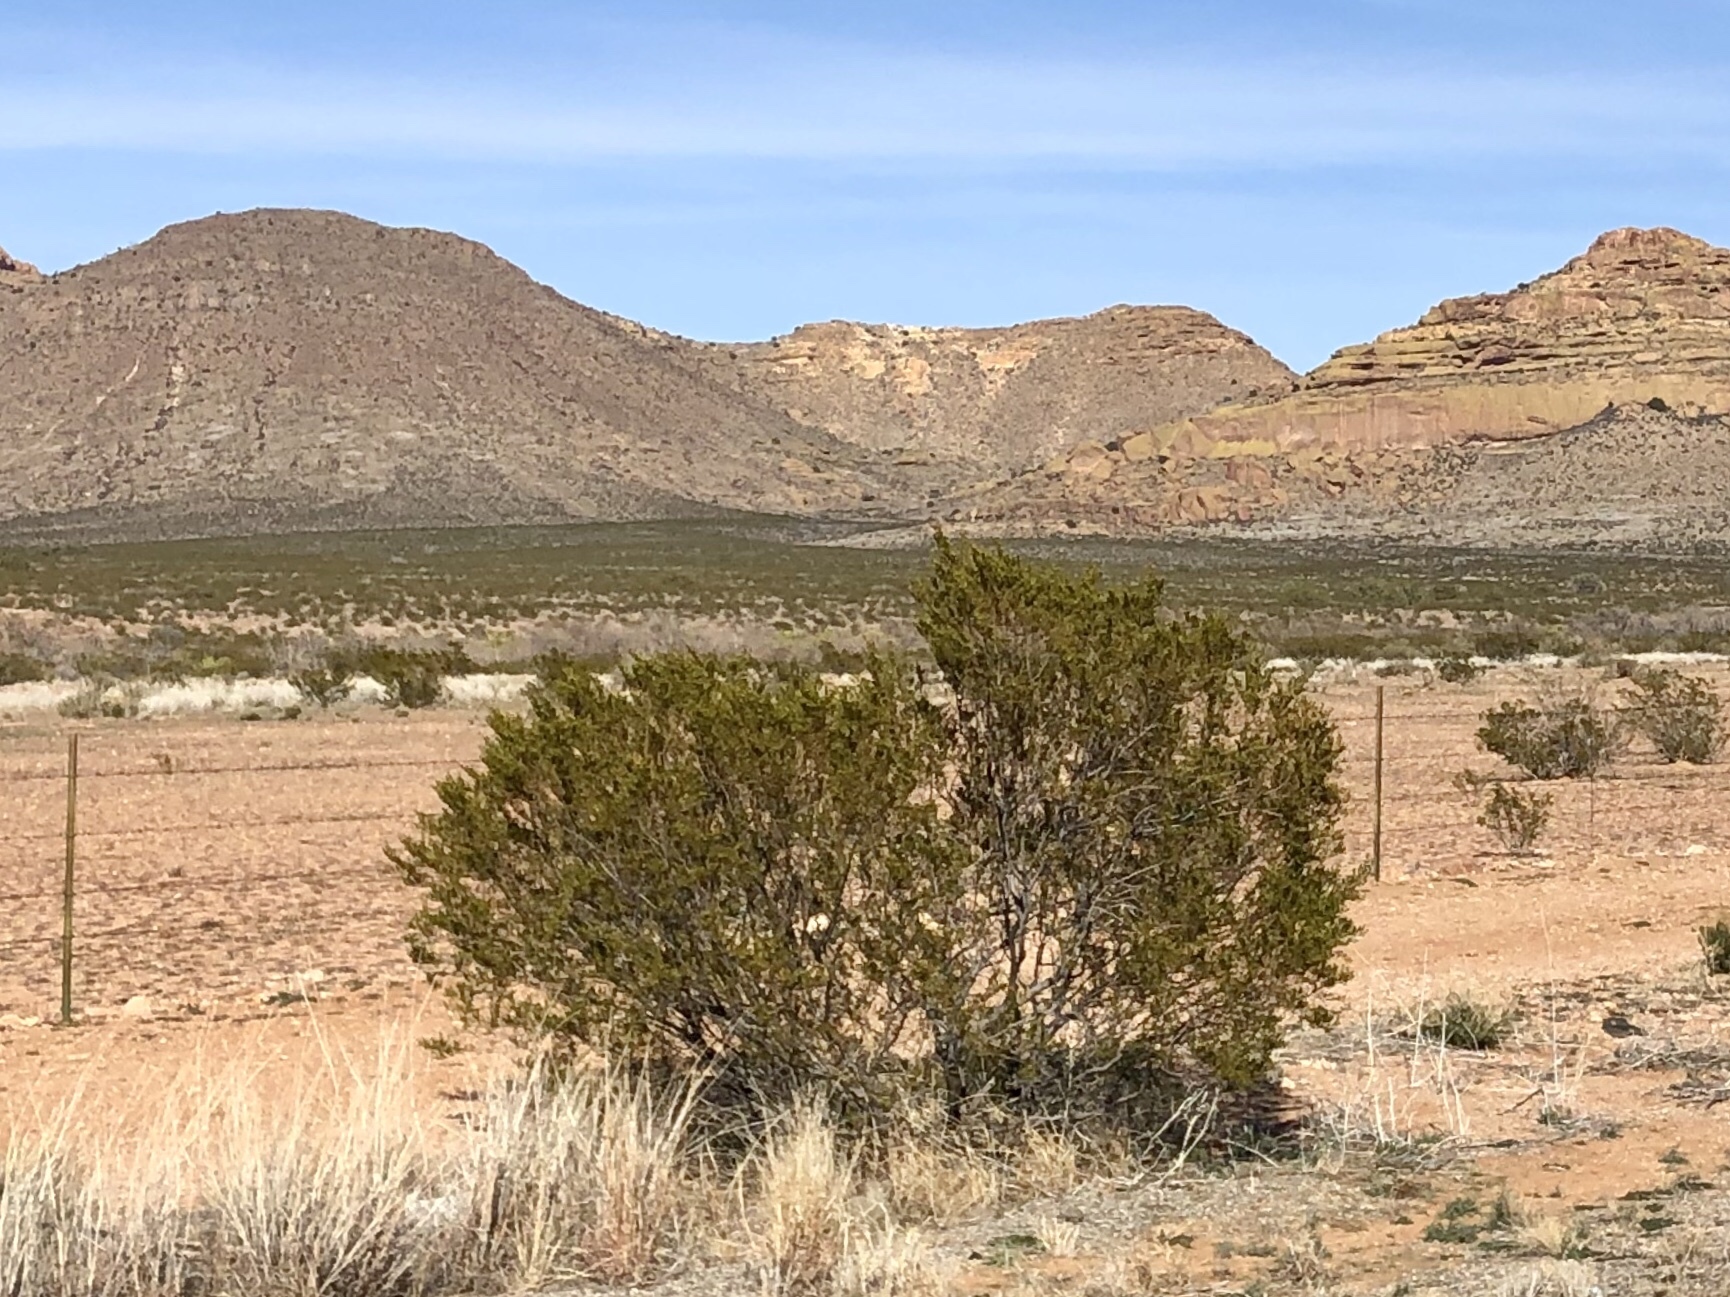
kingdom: Plantae
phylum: Tracheophyta
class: Magnoliopsida
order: Zygophyllales
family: Zygophyllaceae
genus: Larrea
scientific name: Larrea tridentata
